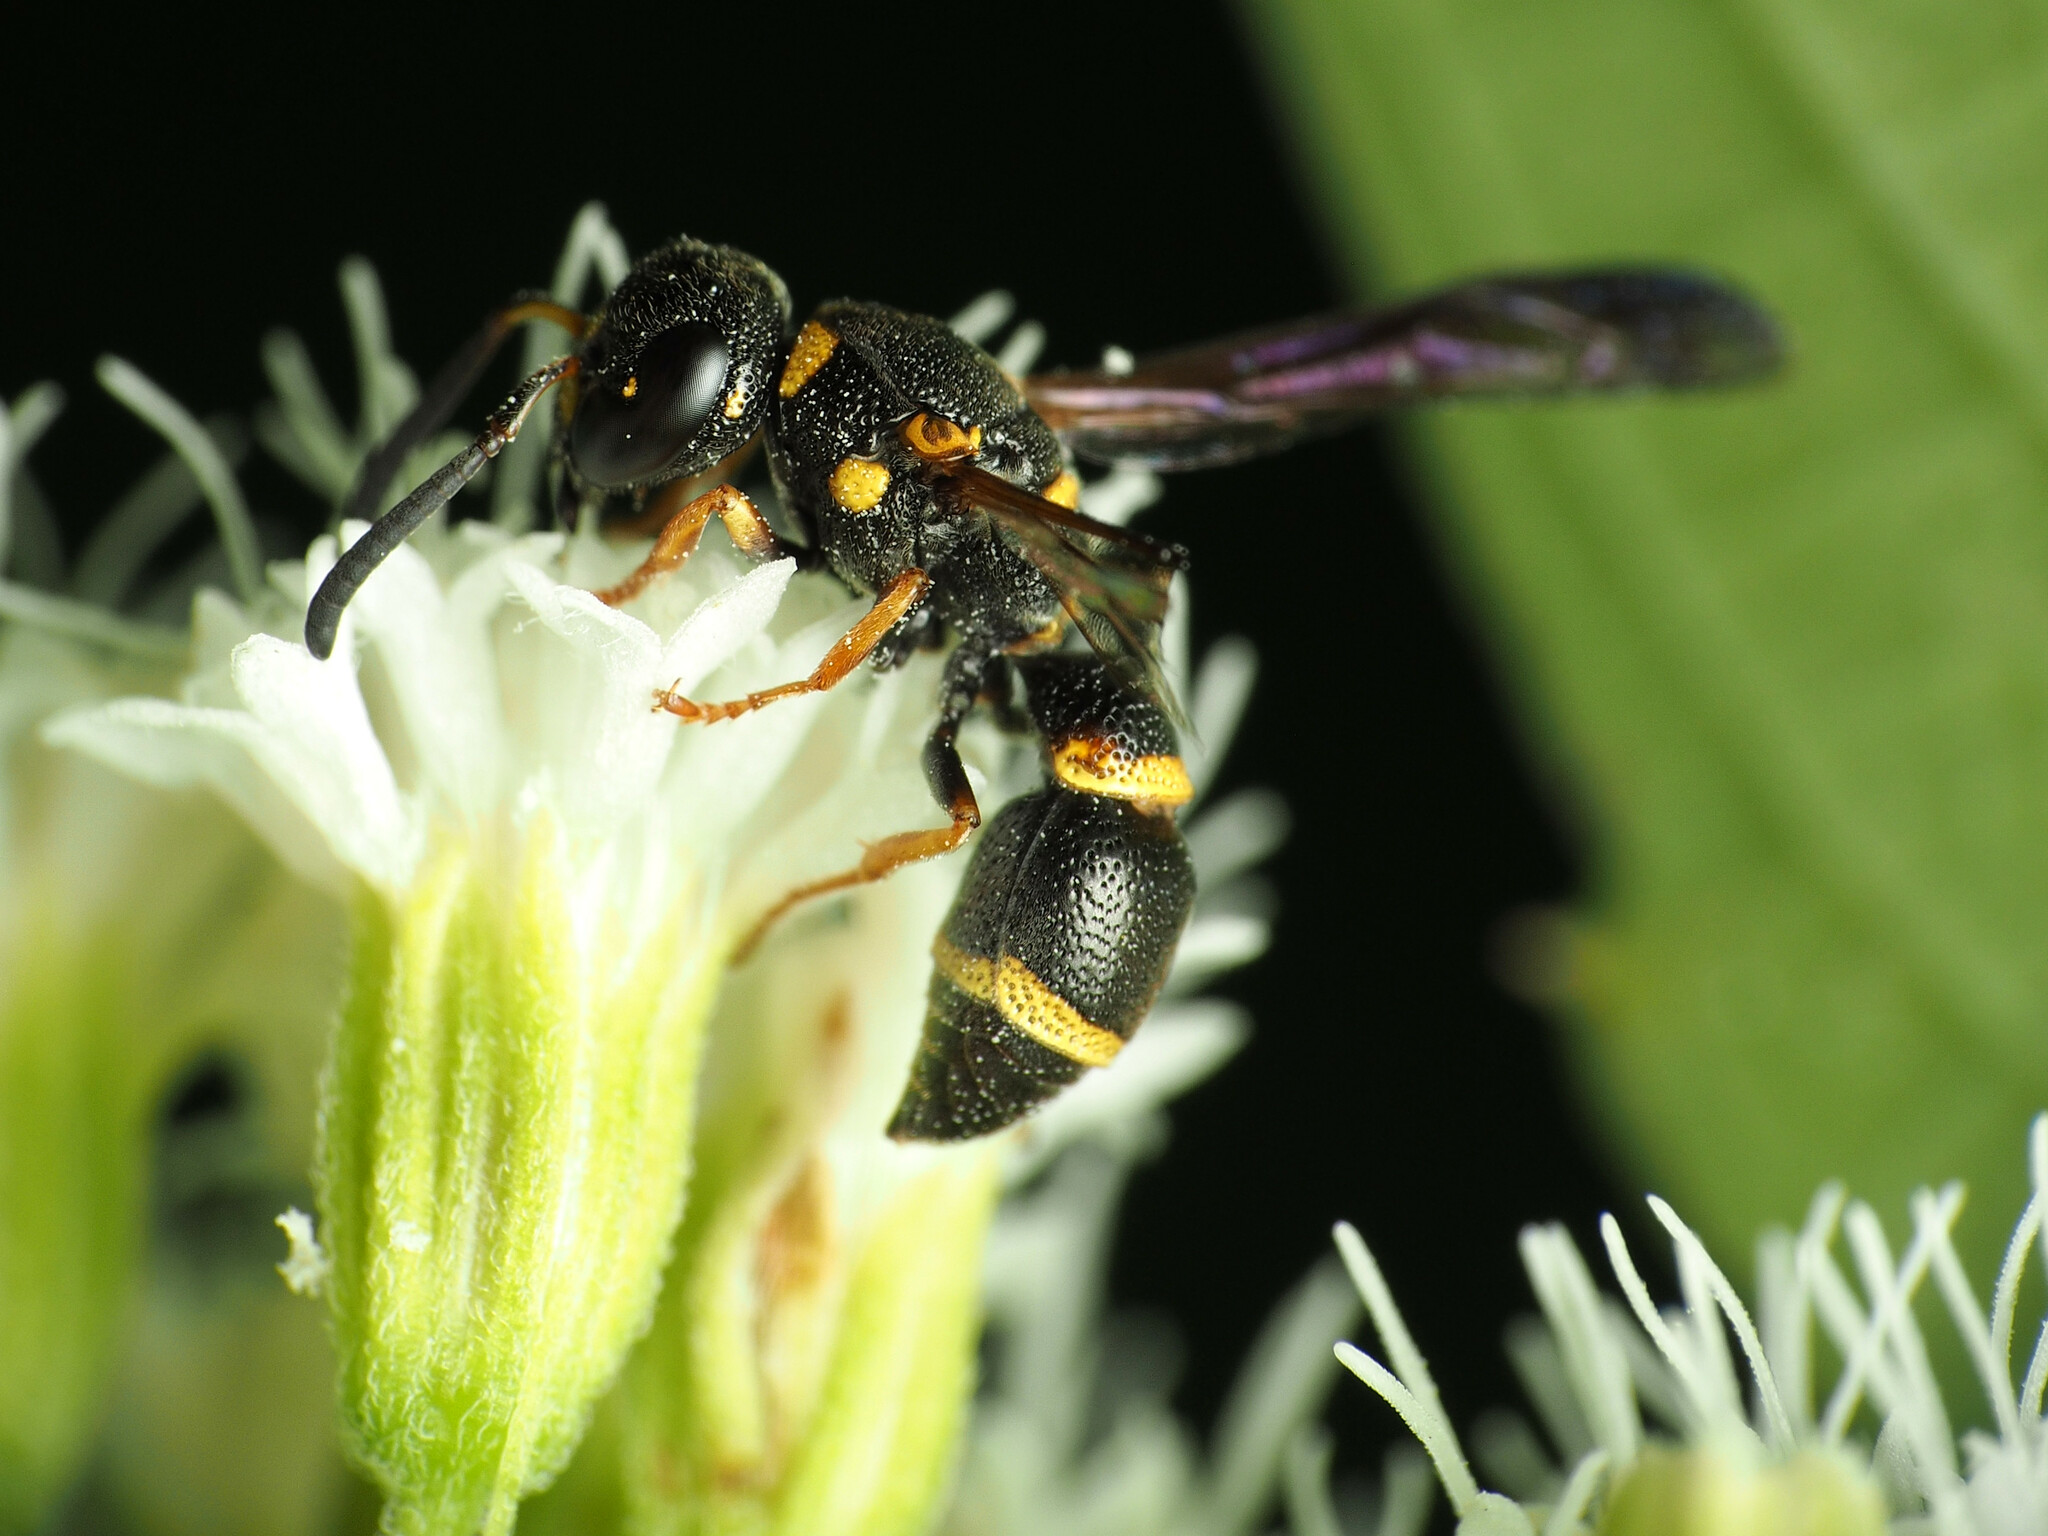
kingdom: Animalia
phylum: Arthropoda
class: Insecta
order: Hymenoptera
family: Eumenidae
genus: Parancistrocerus
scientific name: Parancistrocerus perennis
